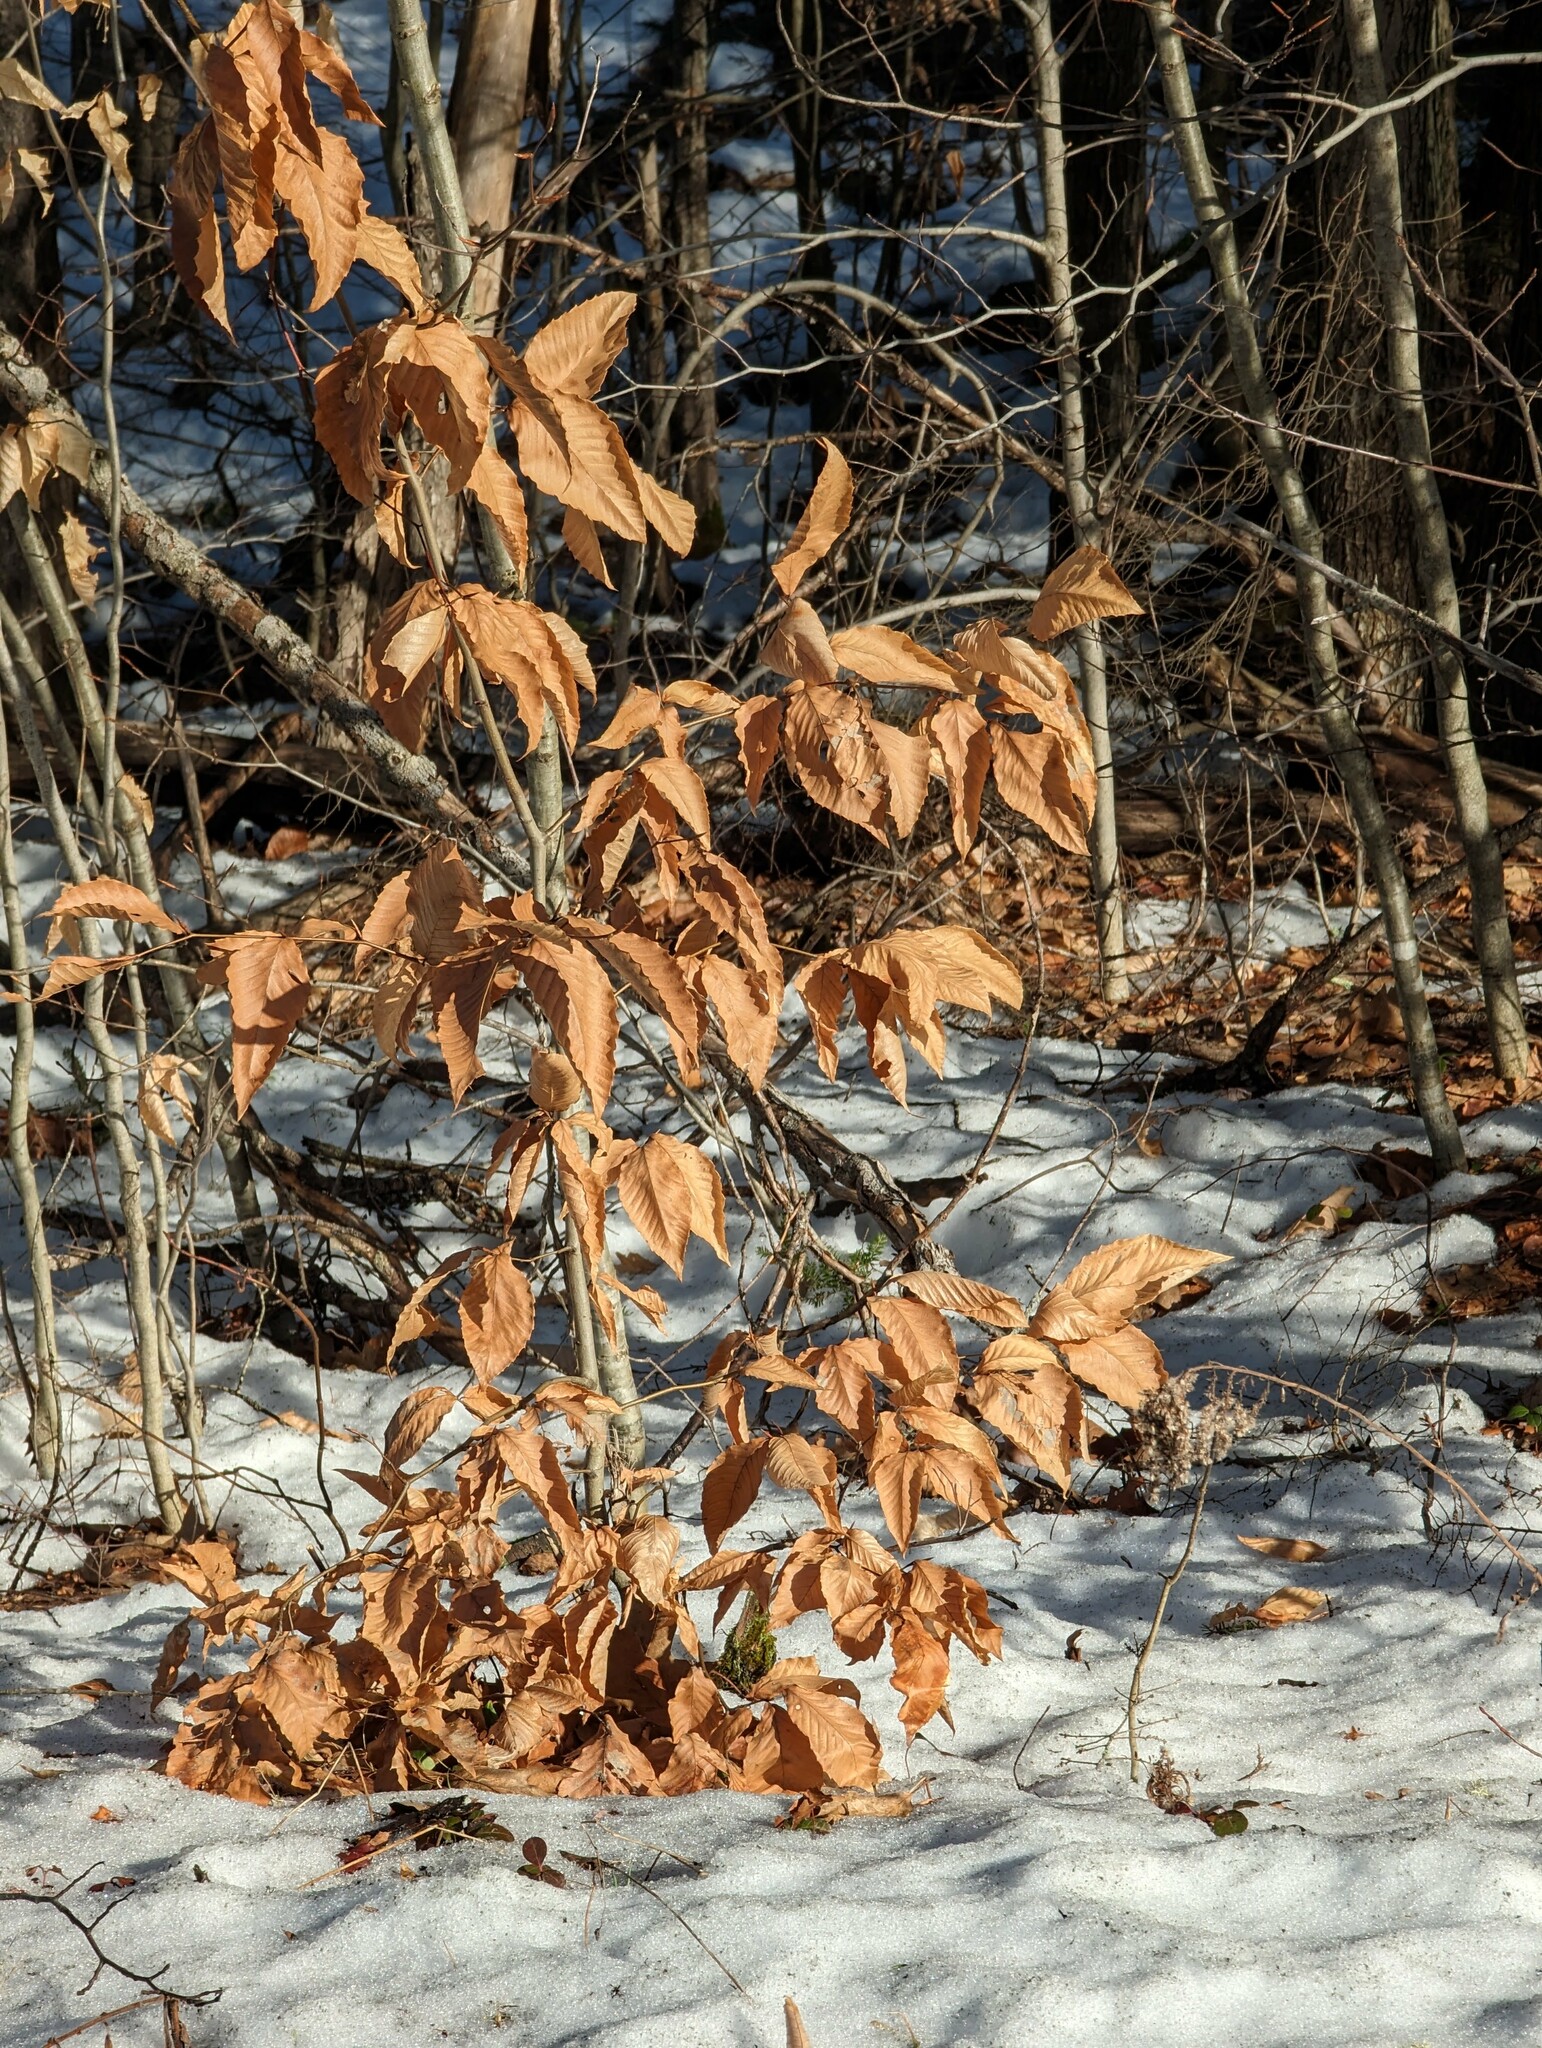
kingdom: Plantae
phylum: Tracheophyta
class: Magnoliopsida
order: Fagales
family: Fagaceae
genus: Fagus
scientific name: Fagus grandifolia
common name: American beech
